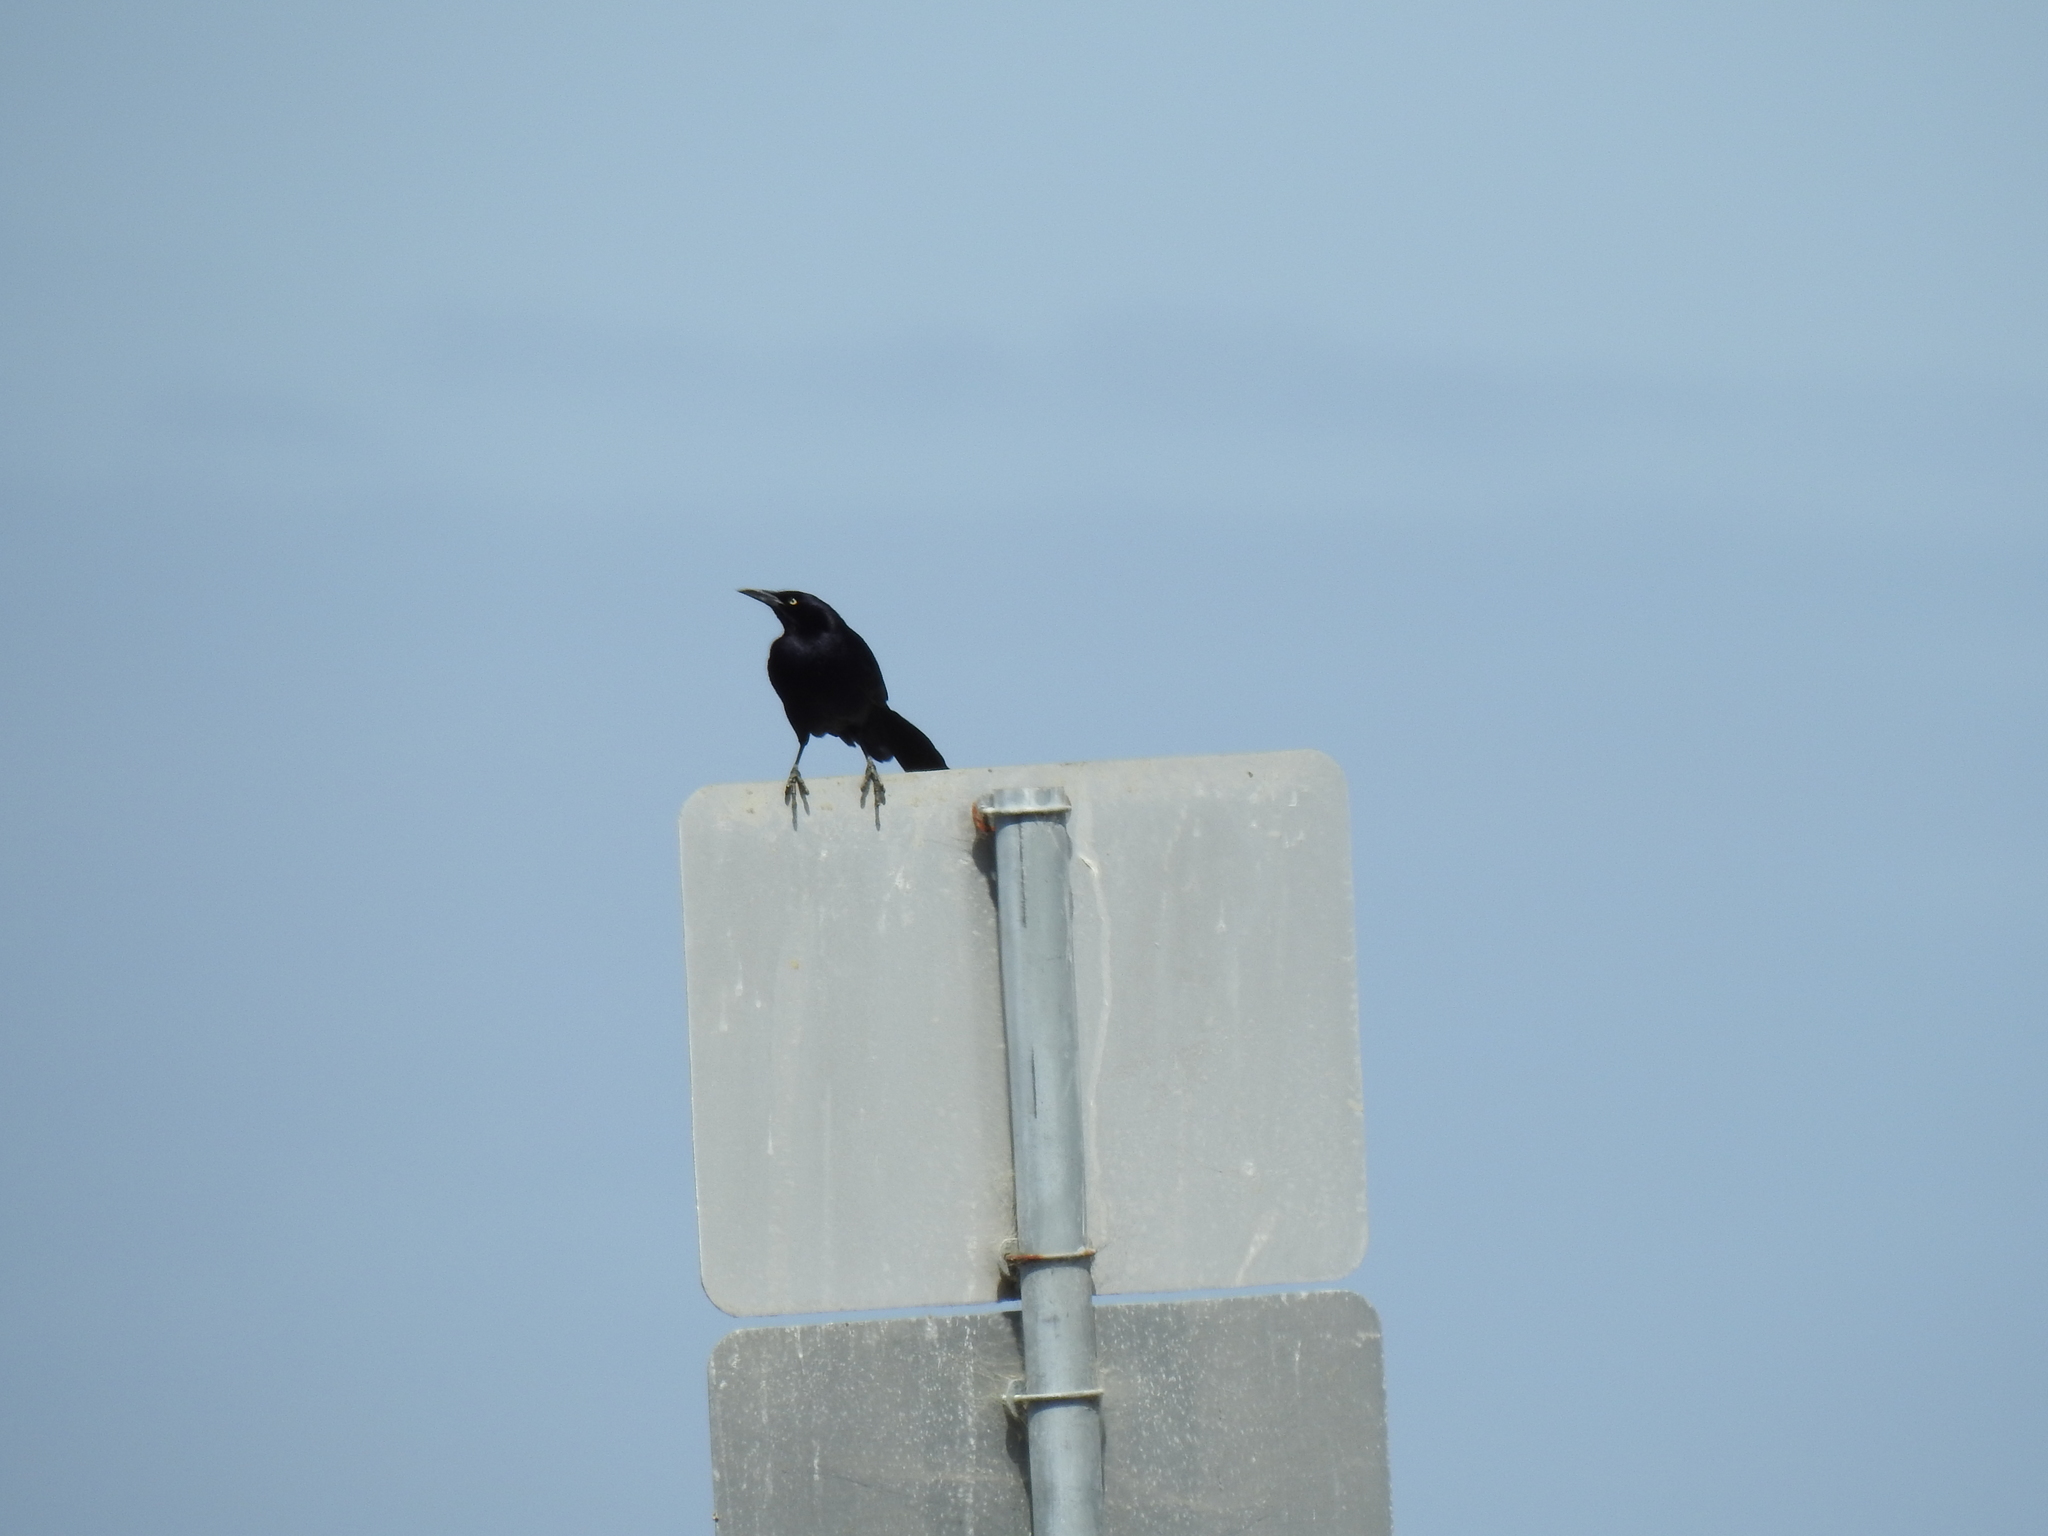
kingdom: Animalia
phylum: Chordata
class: Aves
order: Passeriformes
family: Icteridae
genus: Quiscalus
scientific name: Quiscalus mexicanus
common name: Great-tailed grackle
